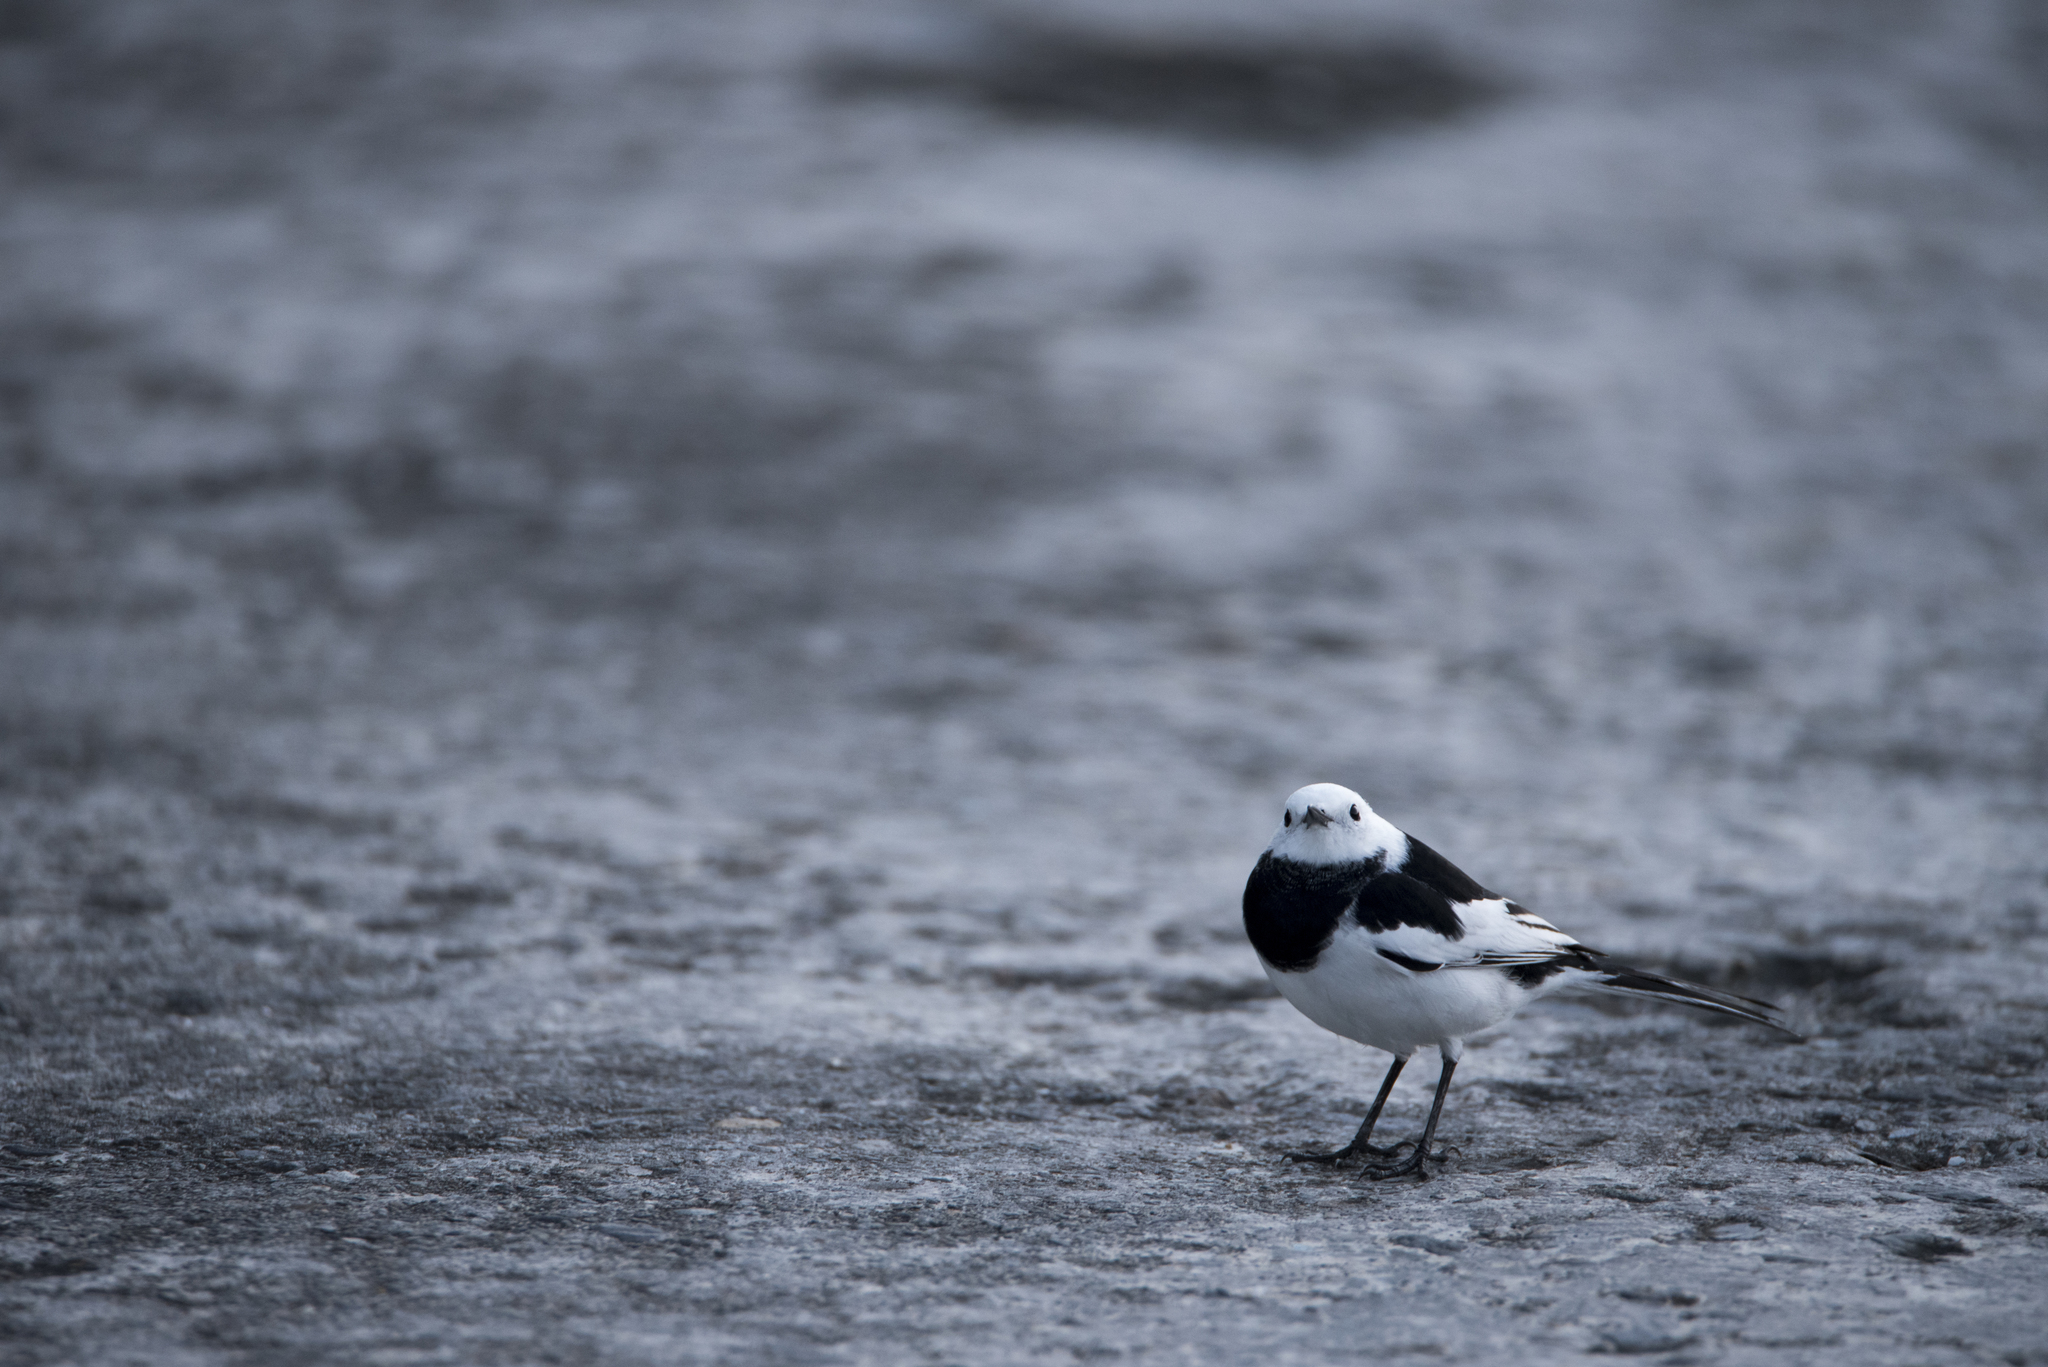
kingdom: Animalia
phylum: Chordata
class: Aves
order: Passeriformes
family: Motacillidae
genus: Motacilla
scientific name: Motacilla alba
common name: White wagtail
